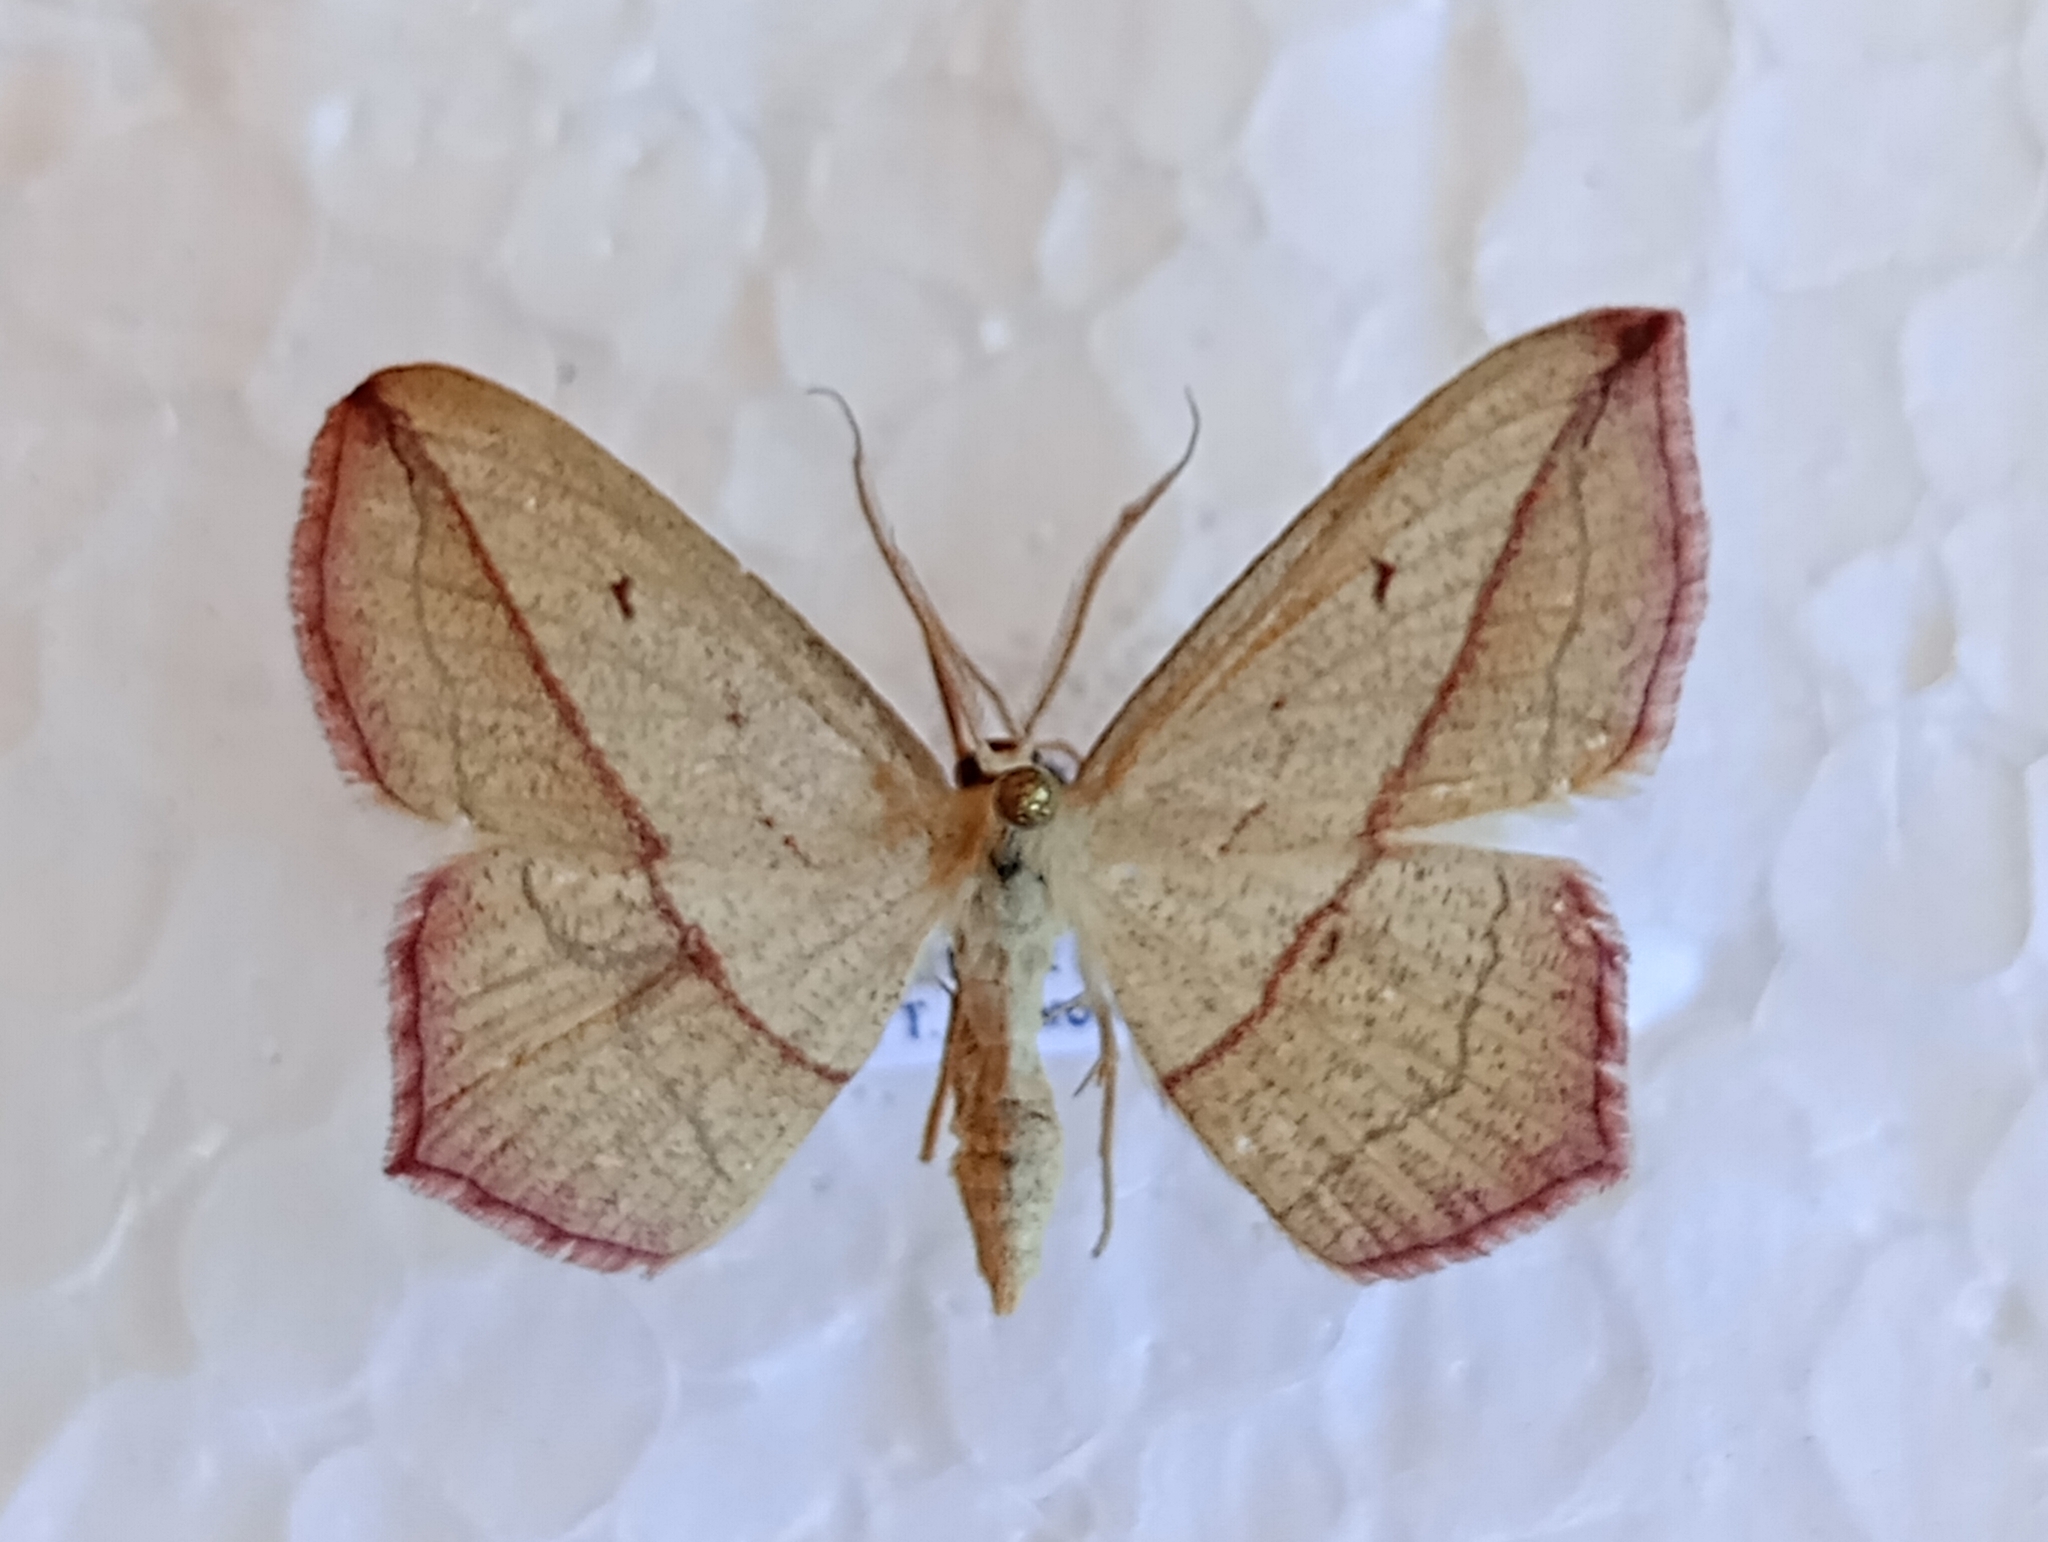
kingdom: Animalia
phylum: Arthropoda
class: Insecta
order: Lepidoptera
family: Geometridae
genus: Timandra
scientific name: Timandra comae
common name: Blood-vein
